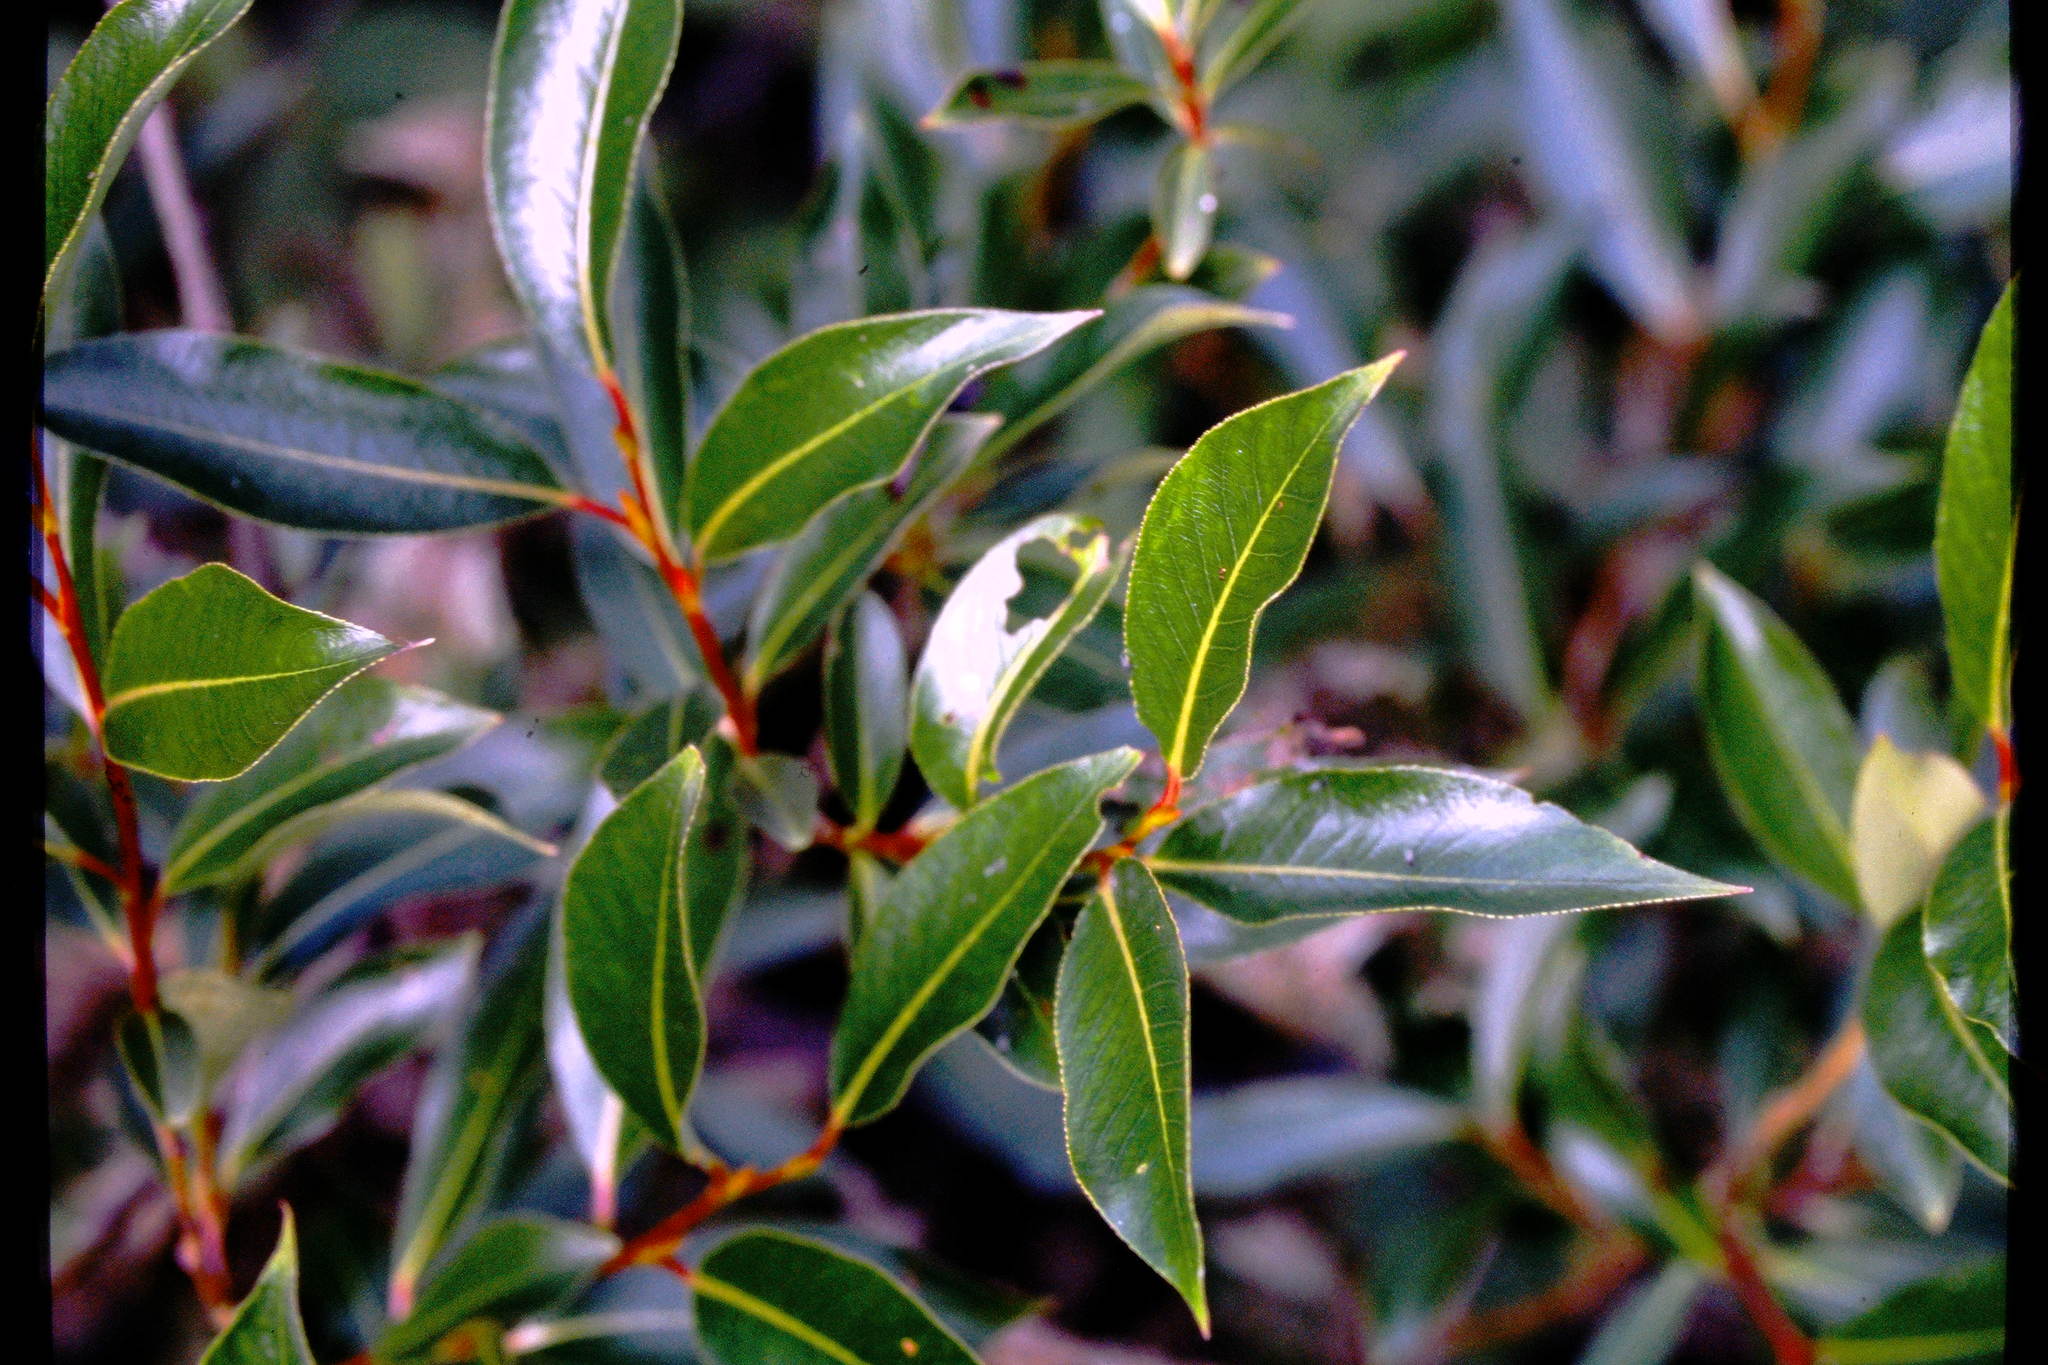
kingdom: Plantae
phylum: Tracheophyta
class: Magnoliopsida
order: Malpighiales
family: Salicaceae
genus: Salix
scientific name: Salix serissima
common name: Autumn willow
